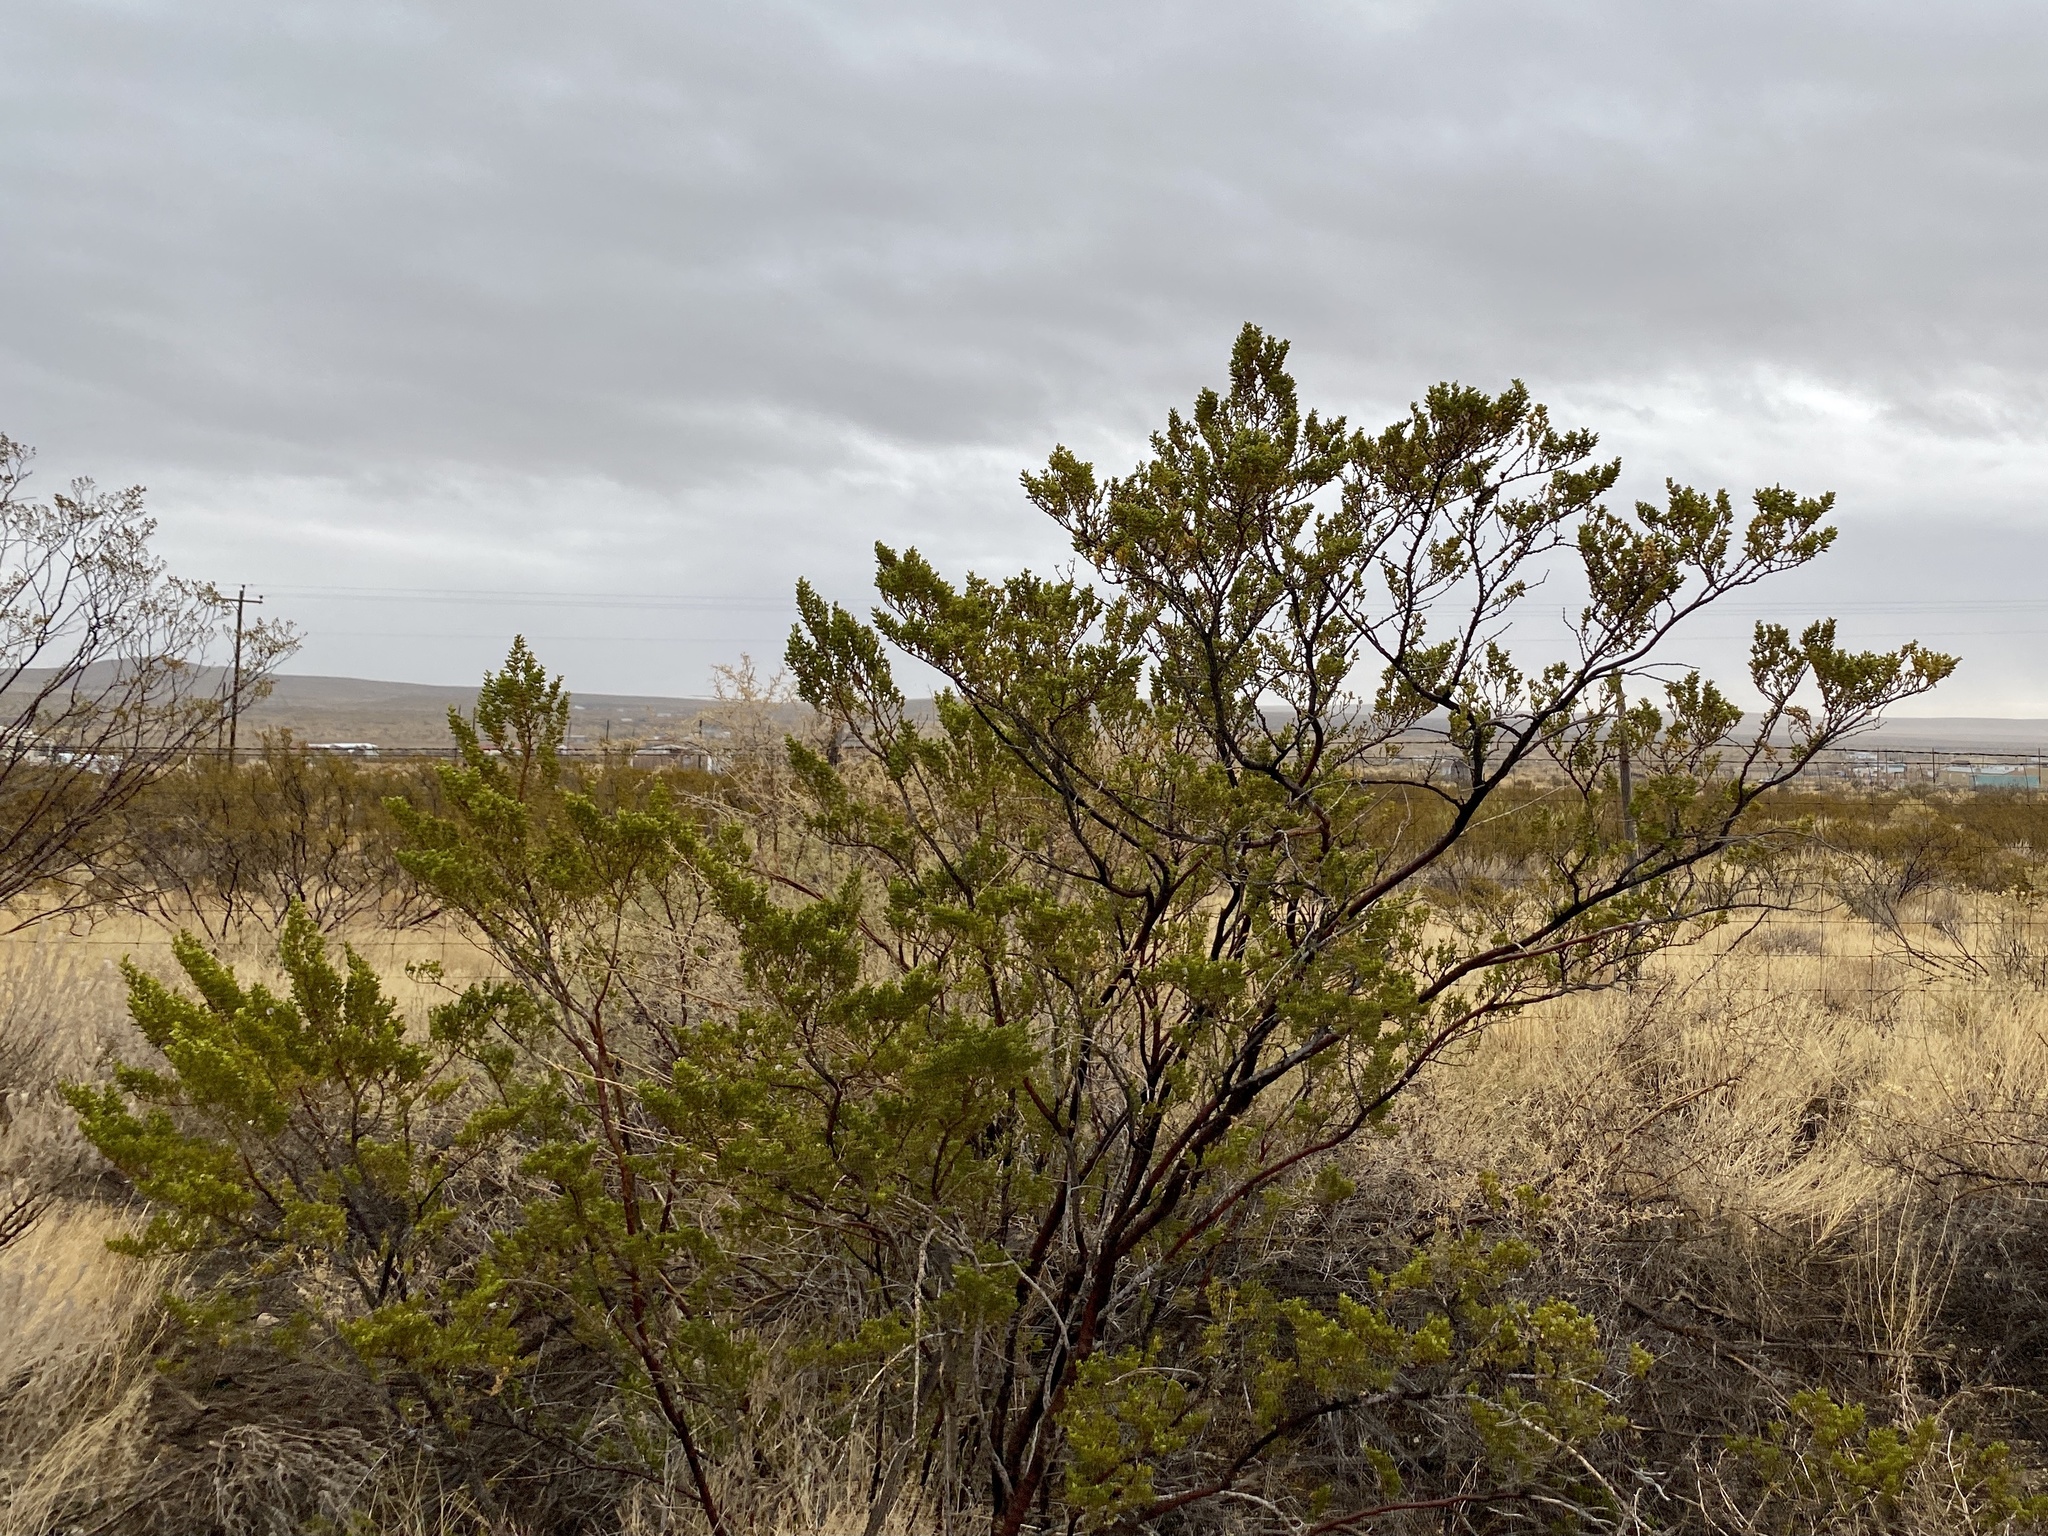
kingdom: Plantae
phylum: Tracheophyta
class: Magnoliopsida
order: Zygophyllales
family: Zygophyllaceae
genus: Larrea
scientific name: Larrea tridentata
